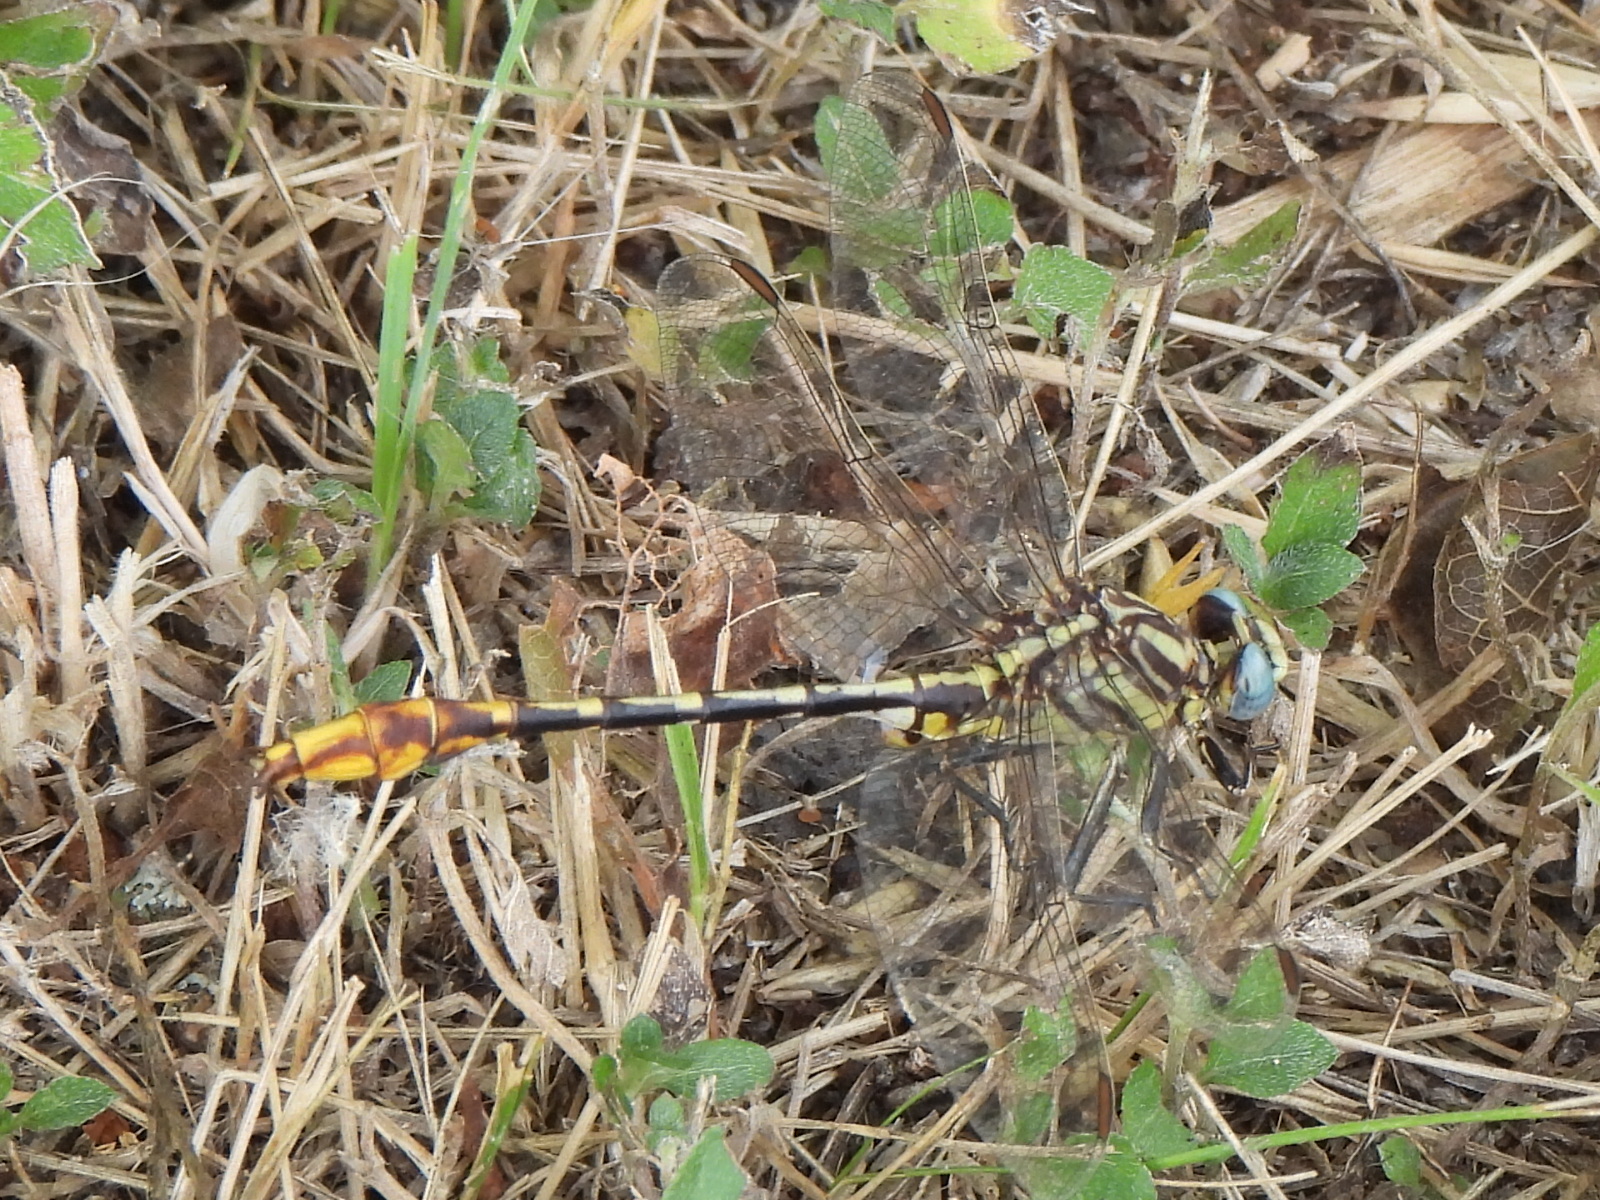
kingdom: Animalia
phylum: Arthropoda
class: Insecta
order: Odonata
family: Gomphidae
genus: Phanogomphus
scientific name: Phanogomphus militaris
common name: Sulphur-tipped clubtail
